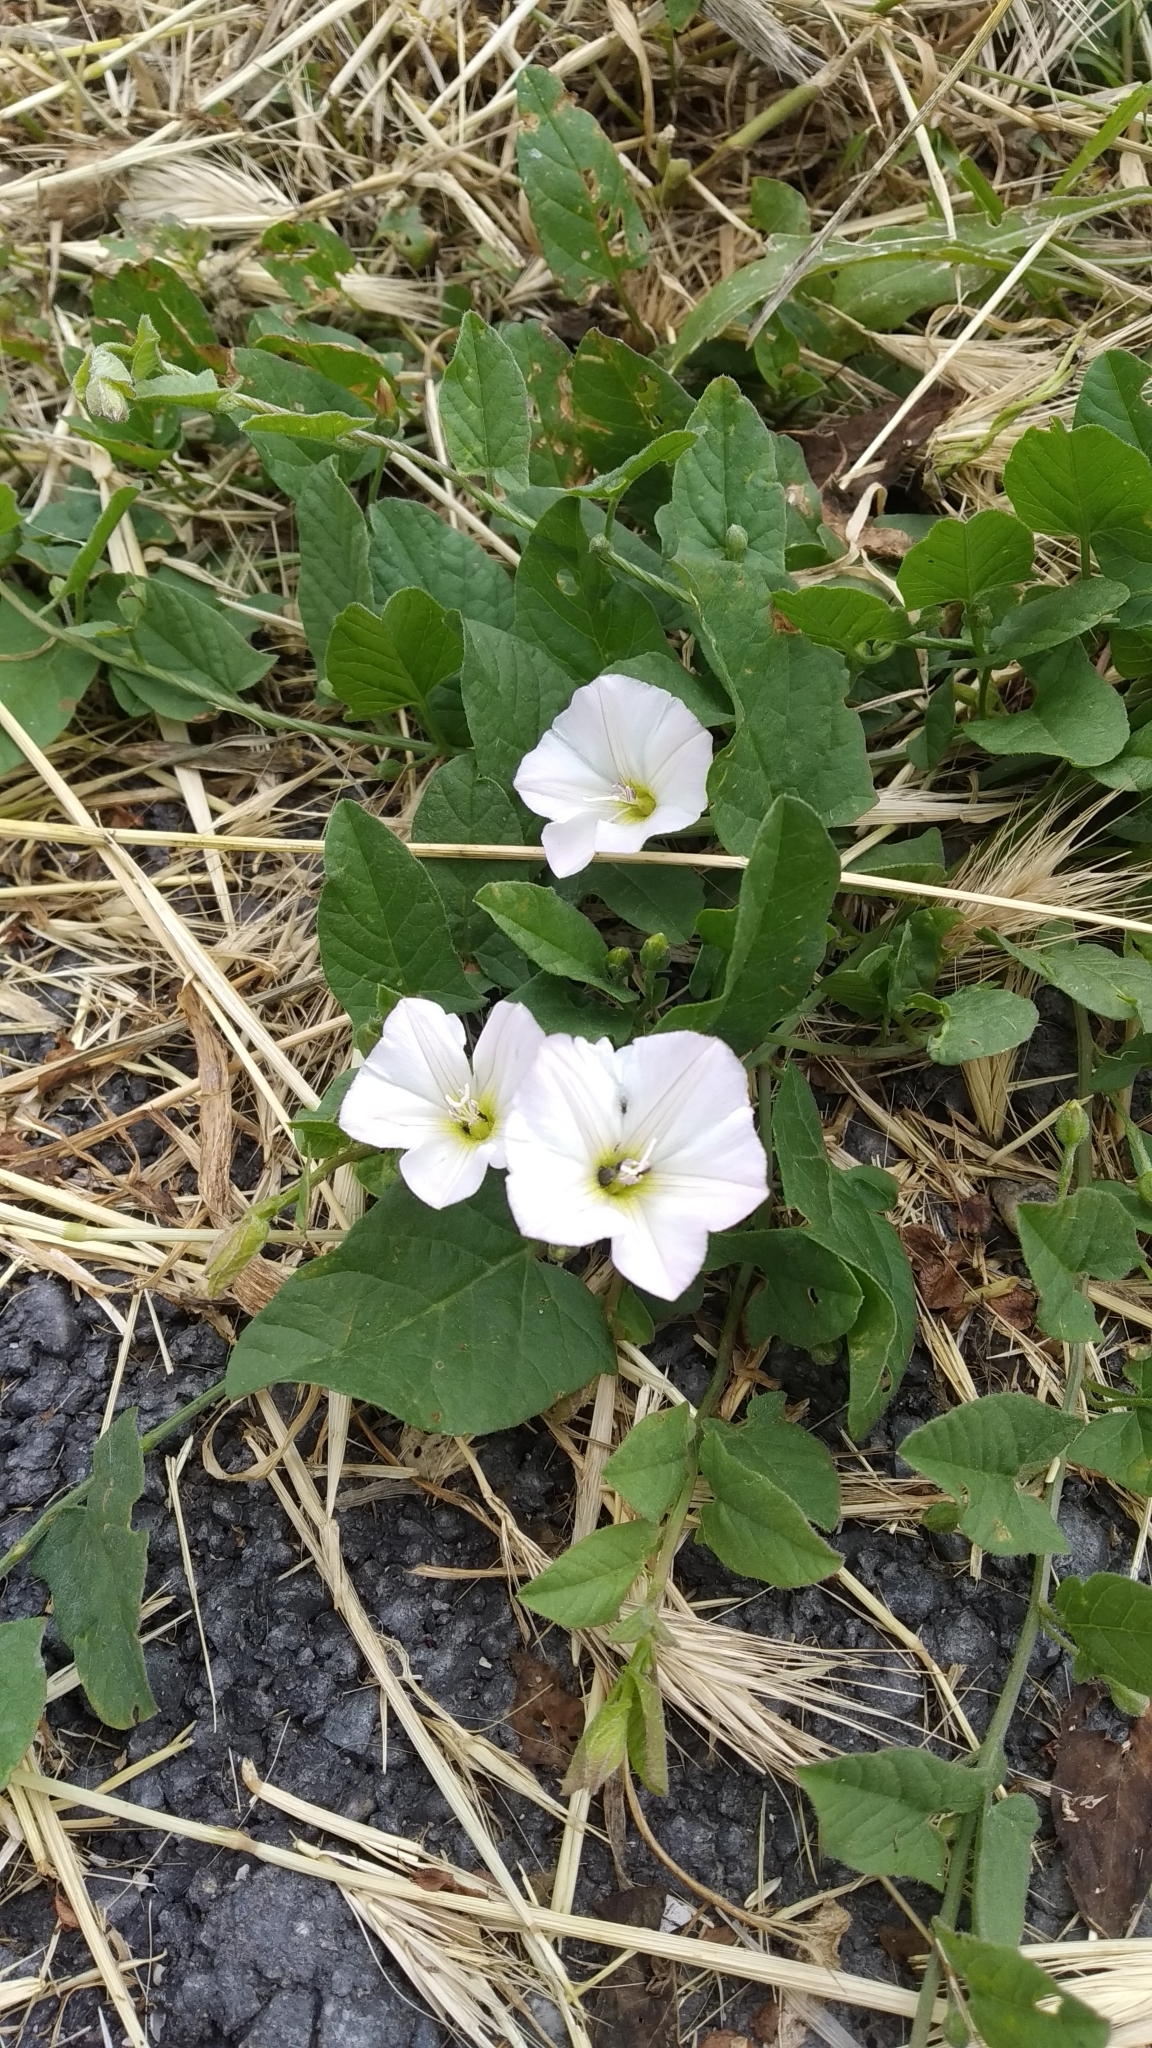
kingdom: Plantae
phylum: Tracheophyta
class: Magnoliopsida
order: Solanales
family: Convolvulaceae
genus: Convolvulus
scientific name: Convolvulus arvensis
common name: Field bindweed
